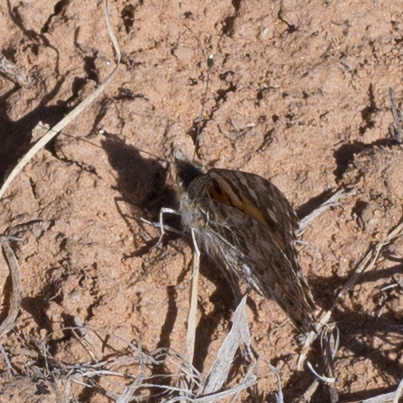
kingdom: Animalia
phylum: Arthropoda
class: Insecta
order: Lepidoptera
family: Nymphalidae
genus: Vanessa
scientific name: Vanessa cardui
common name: Painted lady
